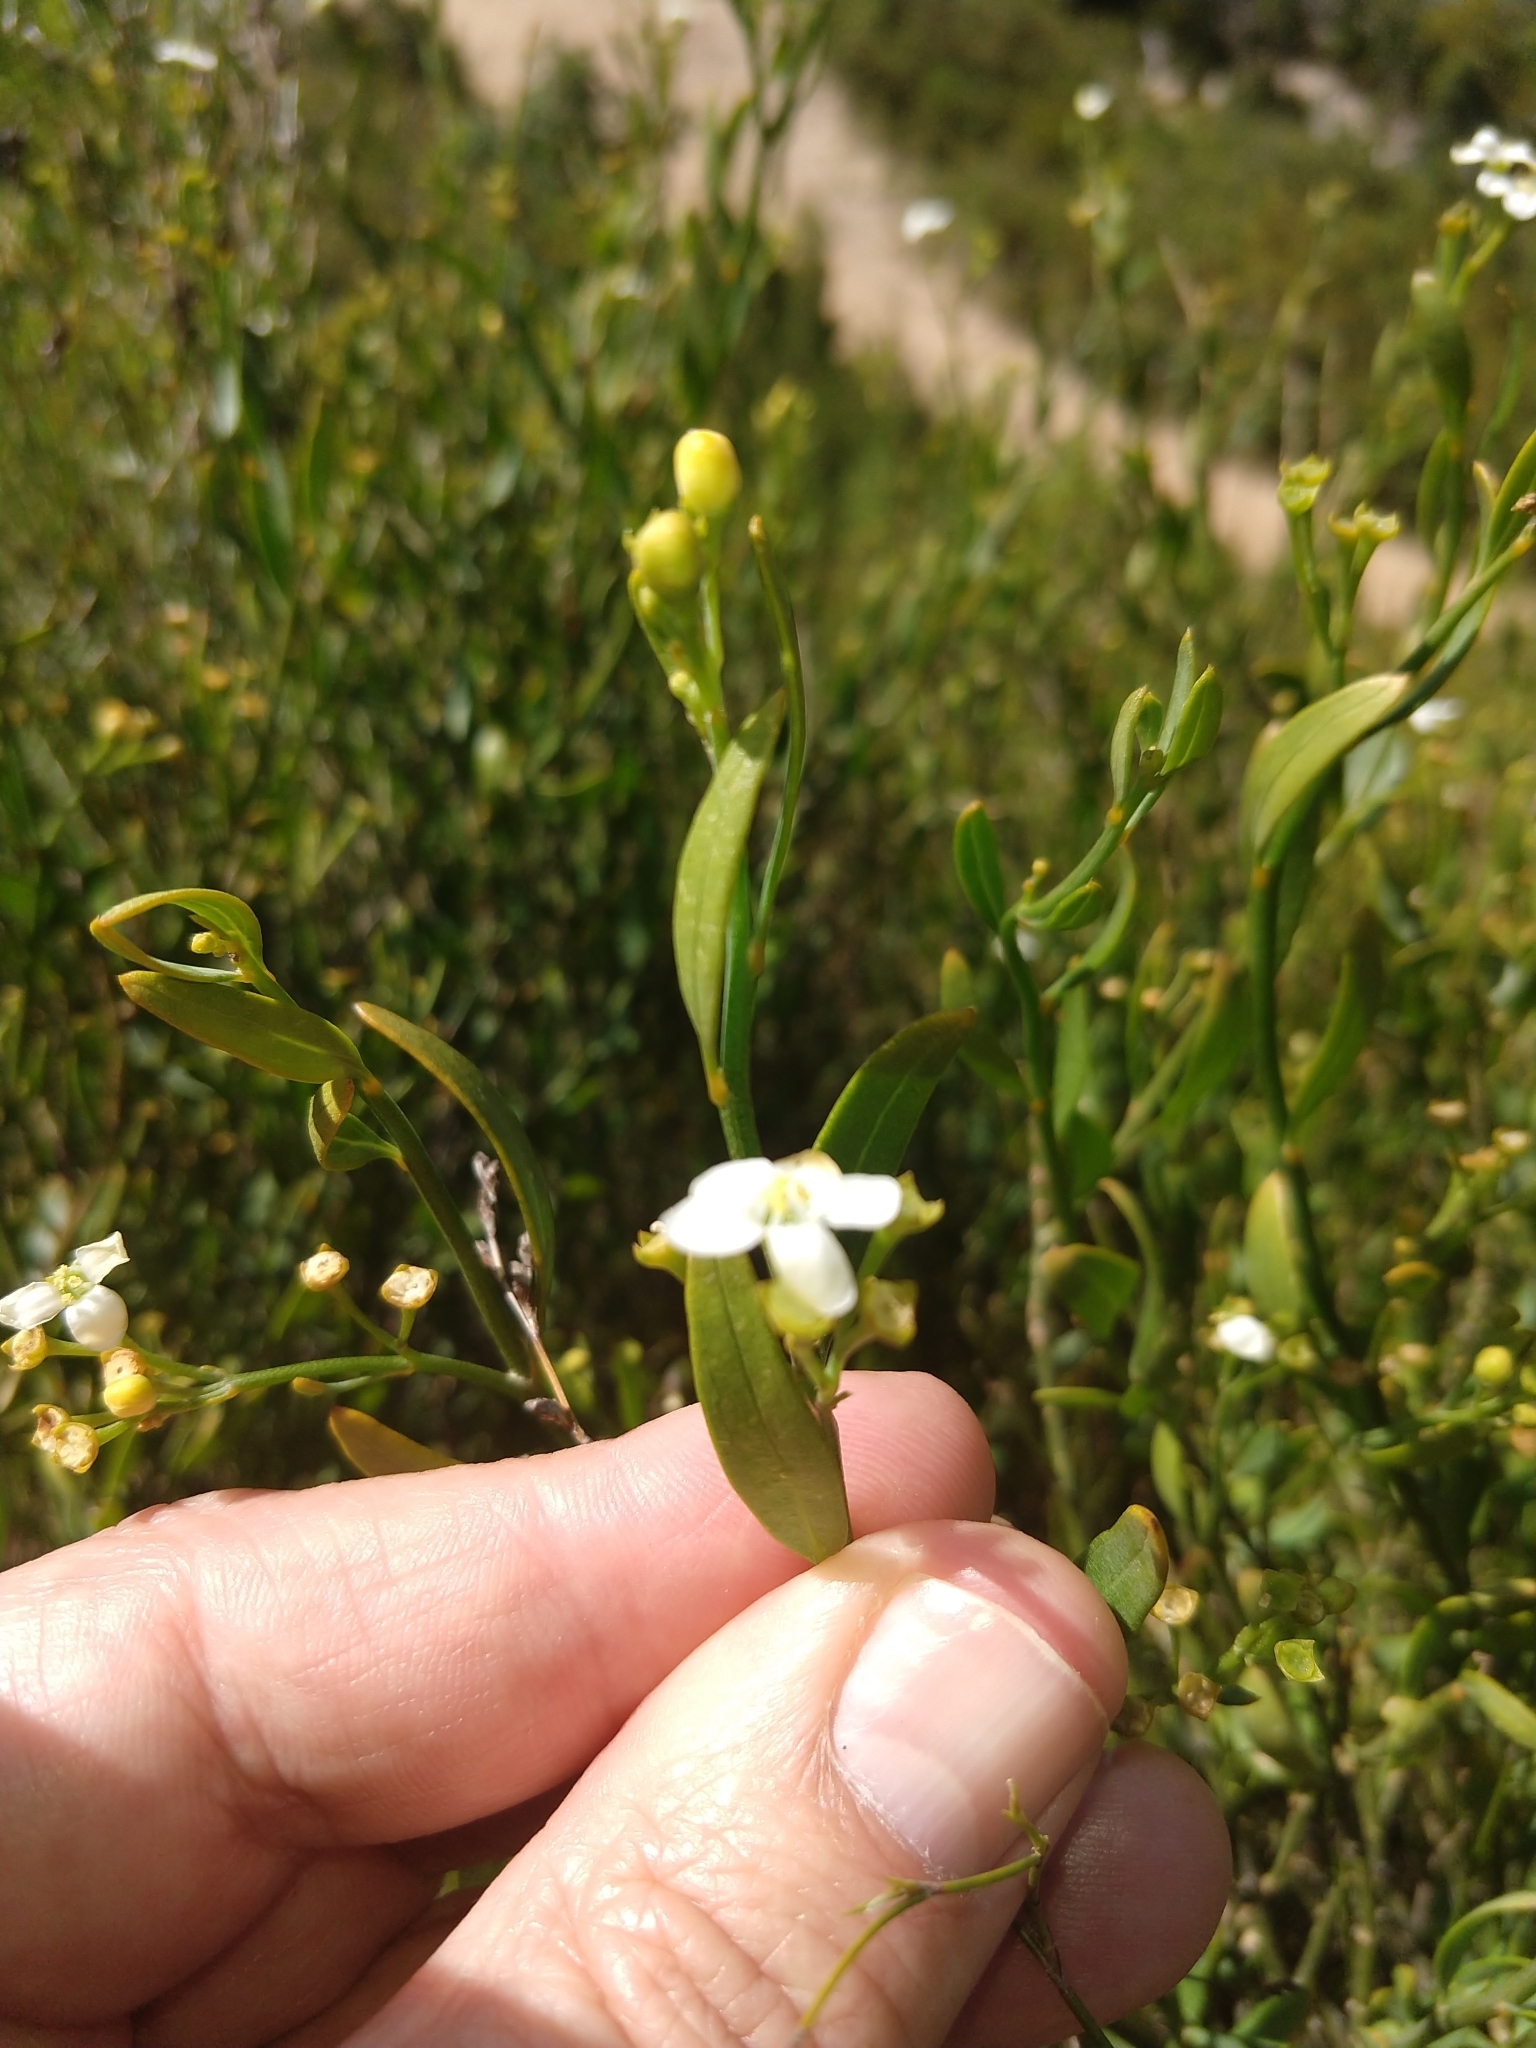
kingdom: Plantae
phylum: Tracheophyta
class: Magnoliopsida
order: Solanales
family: Montiniaceae
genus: Montinia
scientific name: Montinia caryophyllacea
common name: Wild clove-bush
